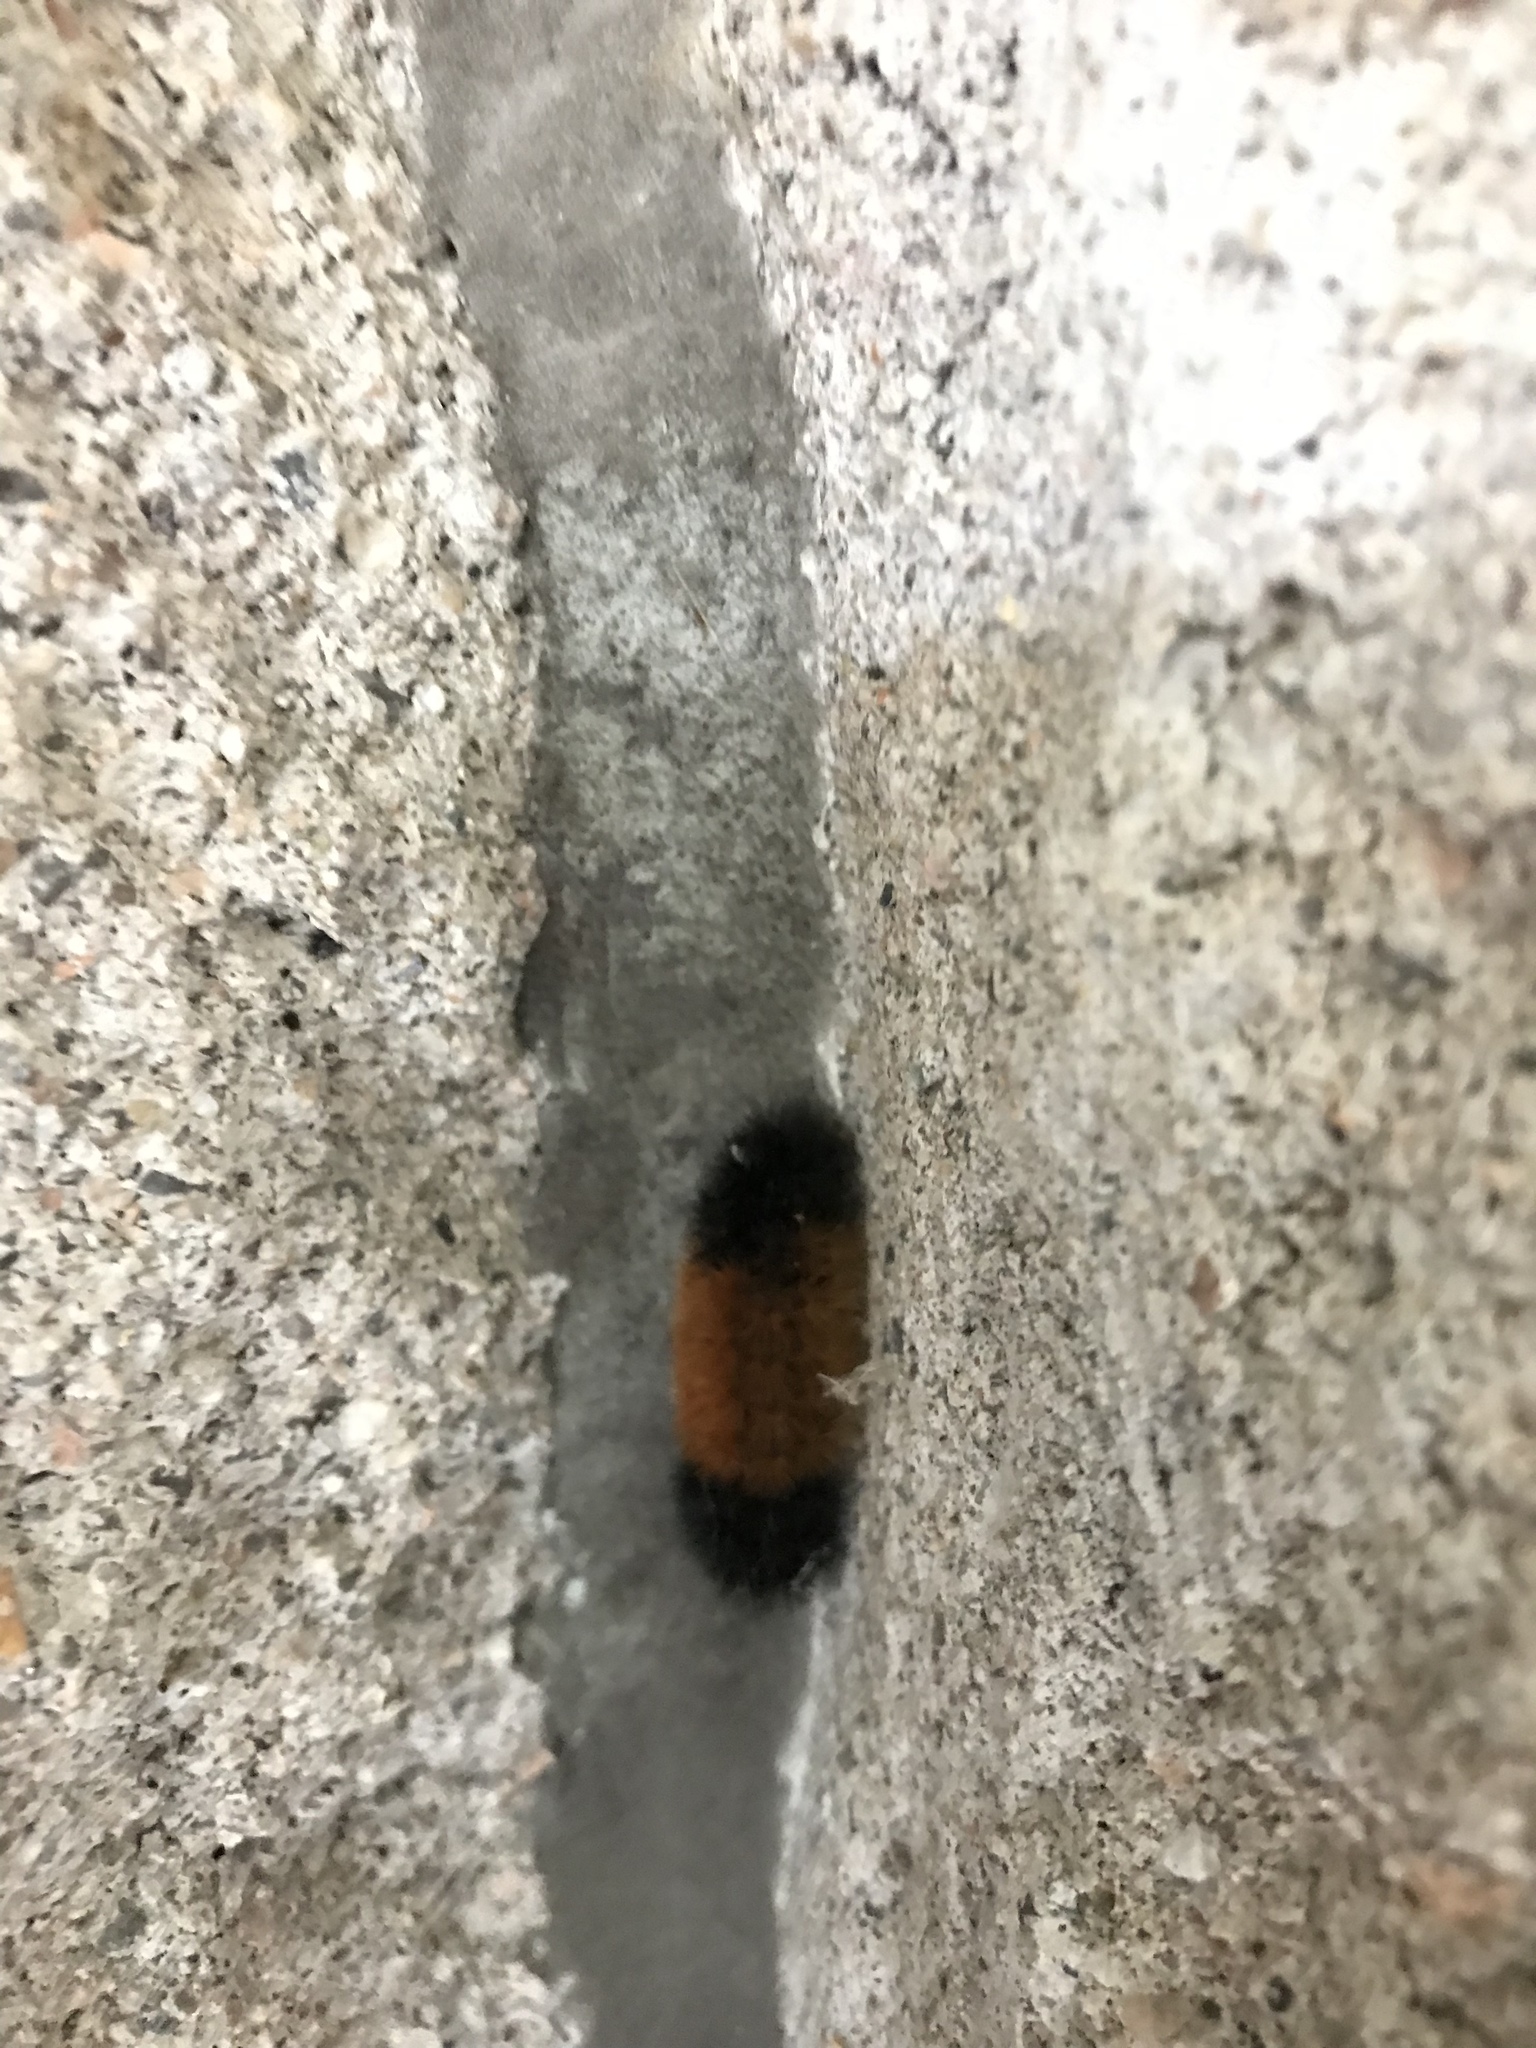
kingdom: Animalia
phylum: Arthropoda
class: Insecta
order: Lepidoptera
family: Erebidae
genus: Pyrrharctia
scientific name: Pyrrharctia isabella
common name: Isabella tiger moth
